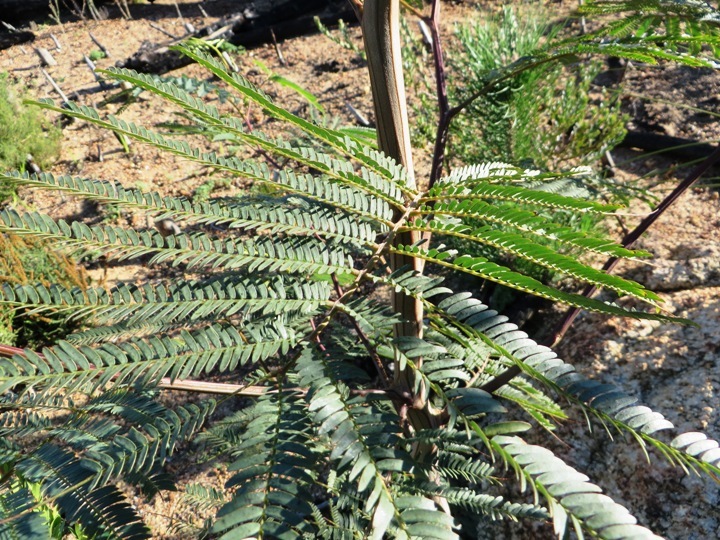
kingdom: Plantae
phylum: Tracheophyta
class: Magnoliopsida
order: Fabales
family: Fabaceae
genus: Paraserianthes
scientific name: Paraserianthes lophantha
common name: Plume albizia
